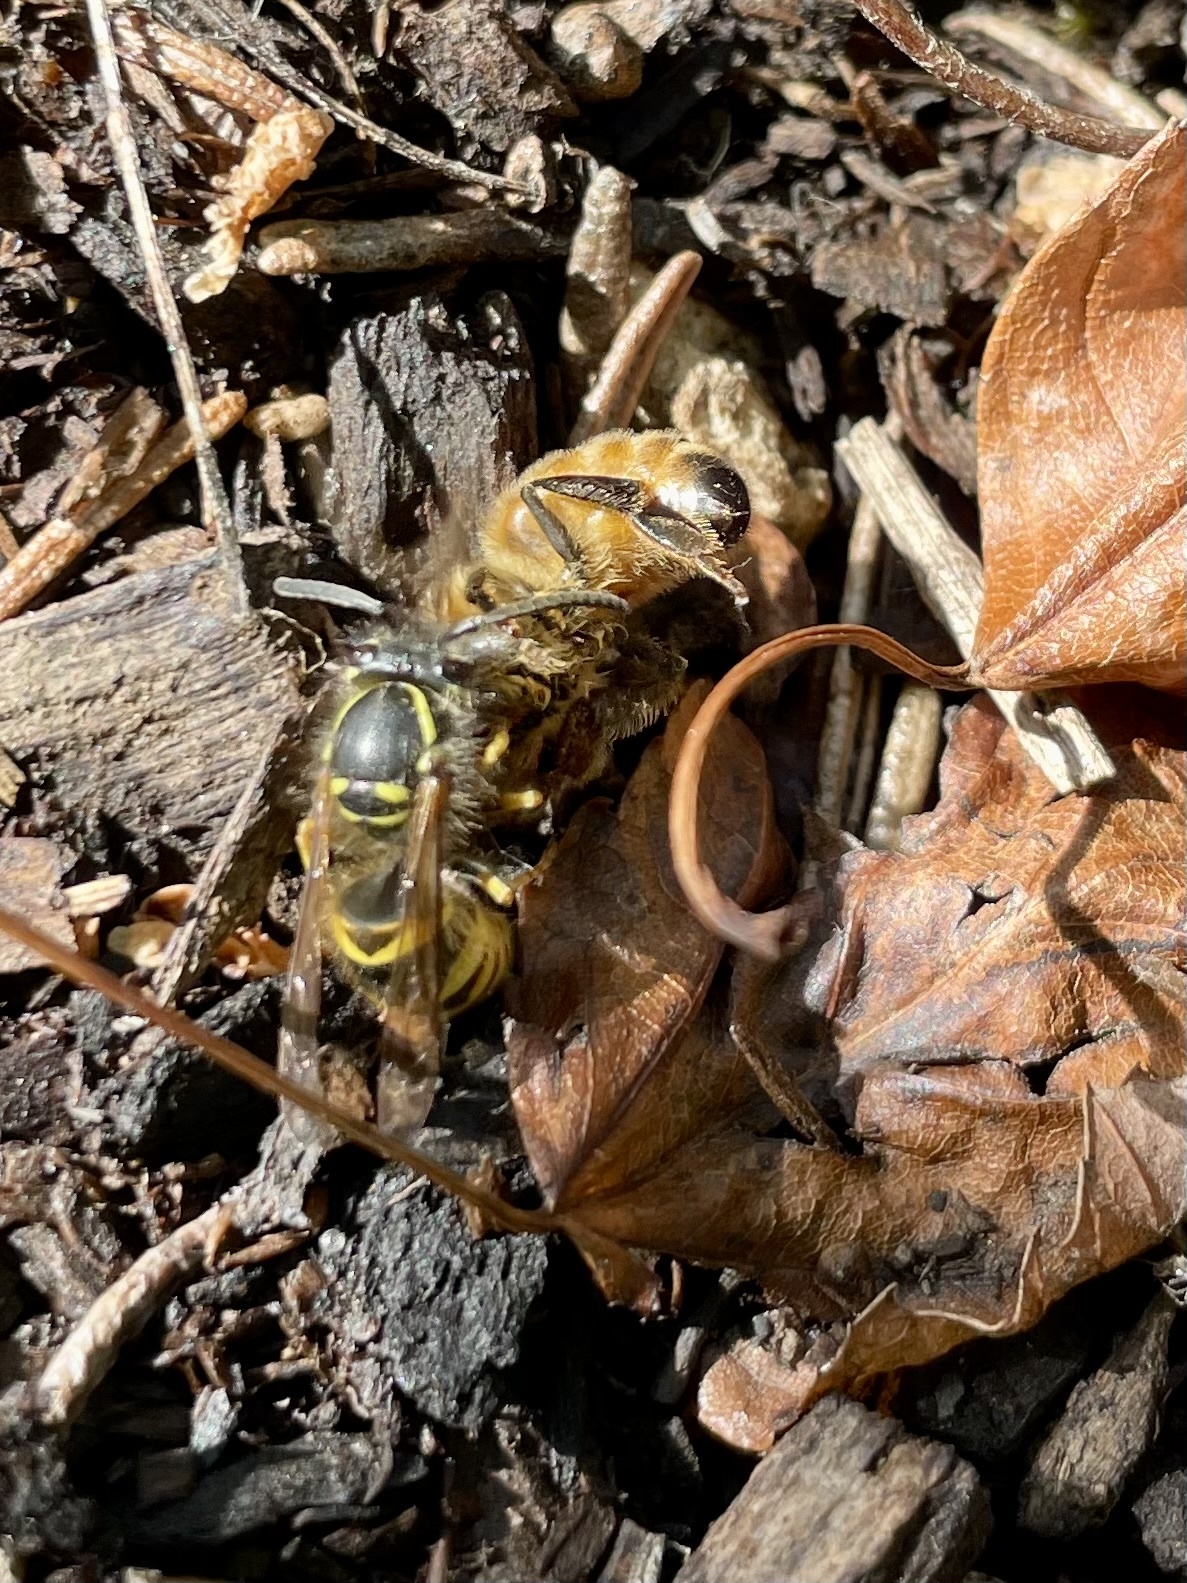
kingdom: Animalia
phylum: Arthropoda
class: Insecta
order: Hymenoptera
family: Vespidae
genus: Vespula
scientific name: Vespula alascensis
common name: Alaska yellowjacket
